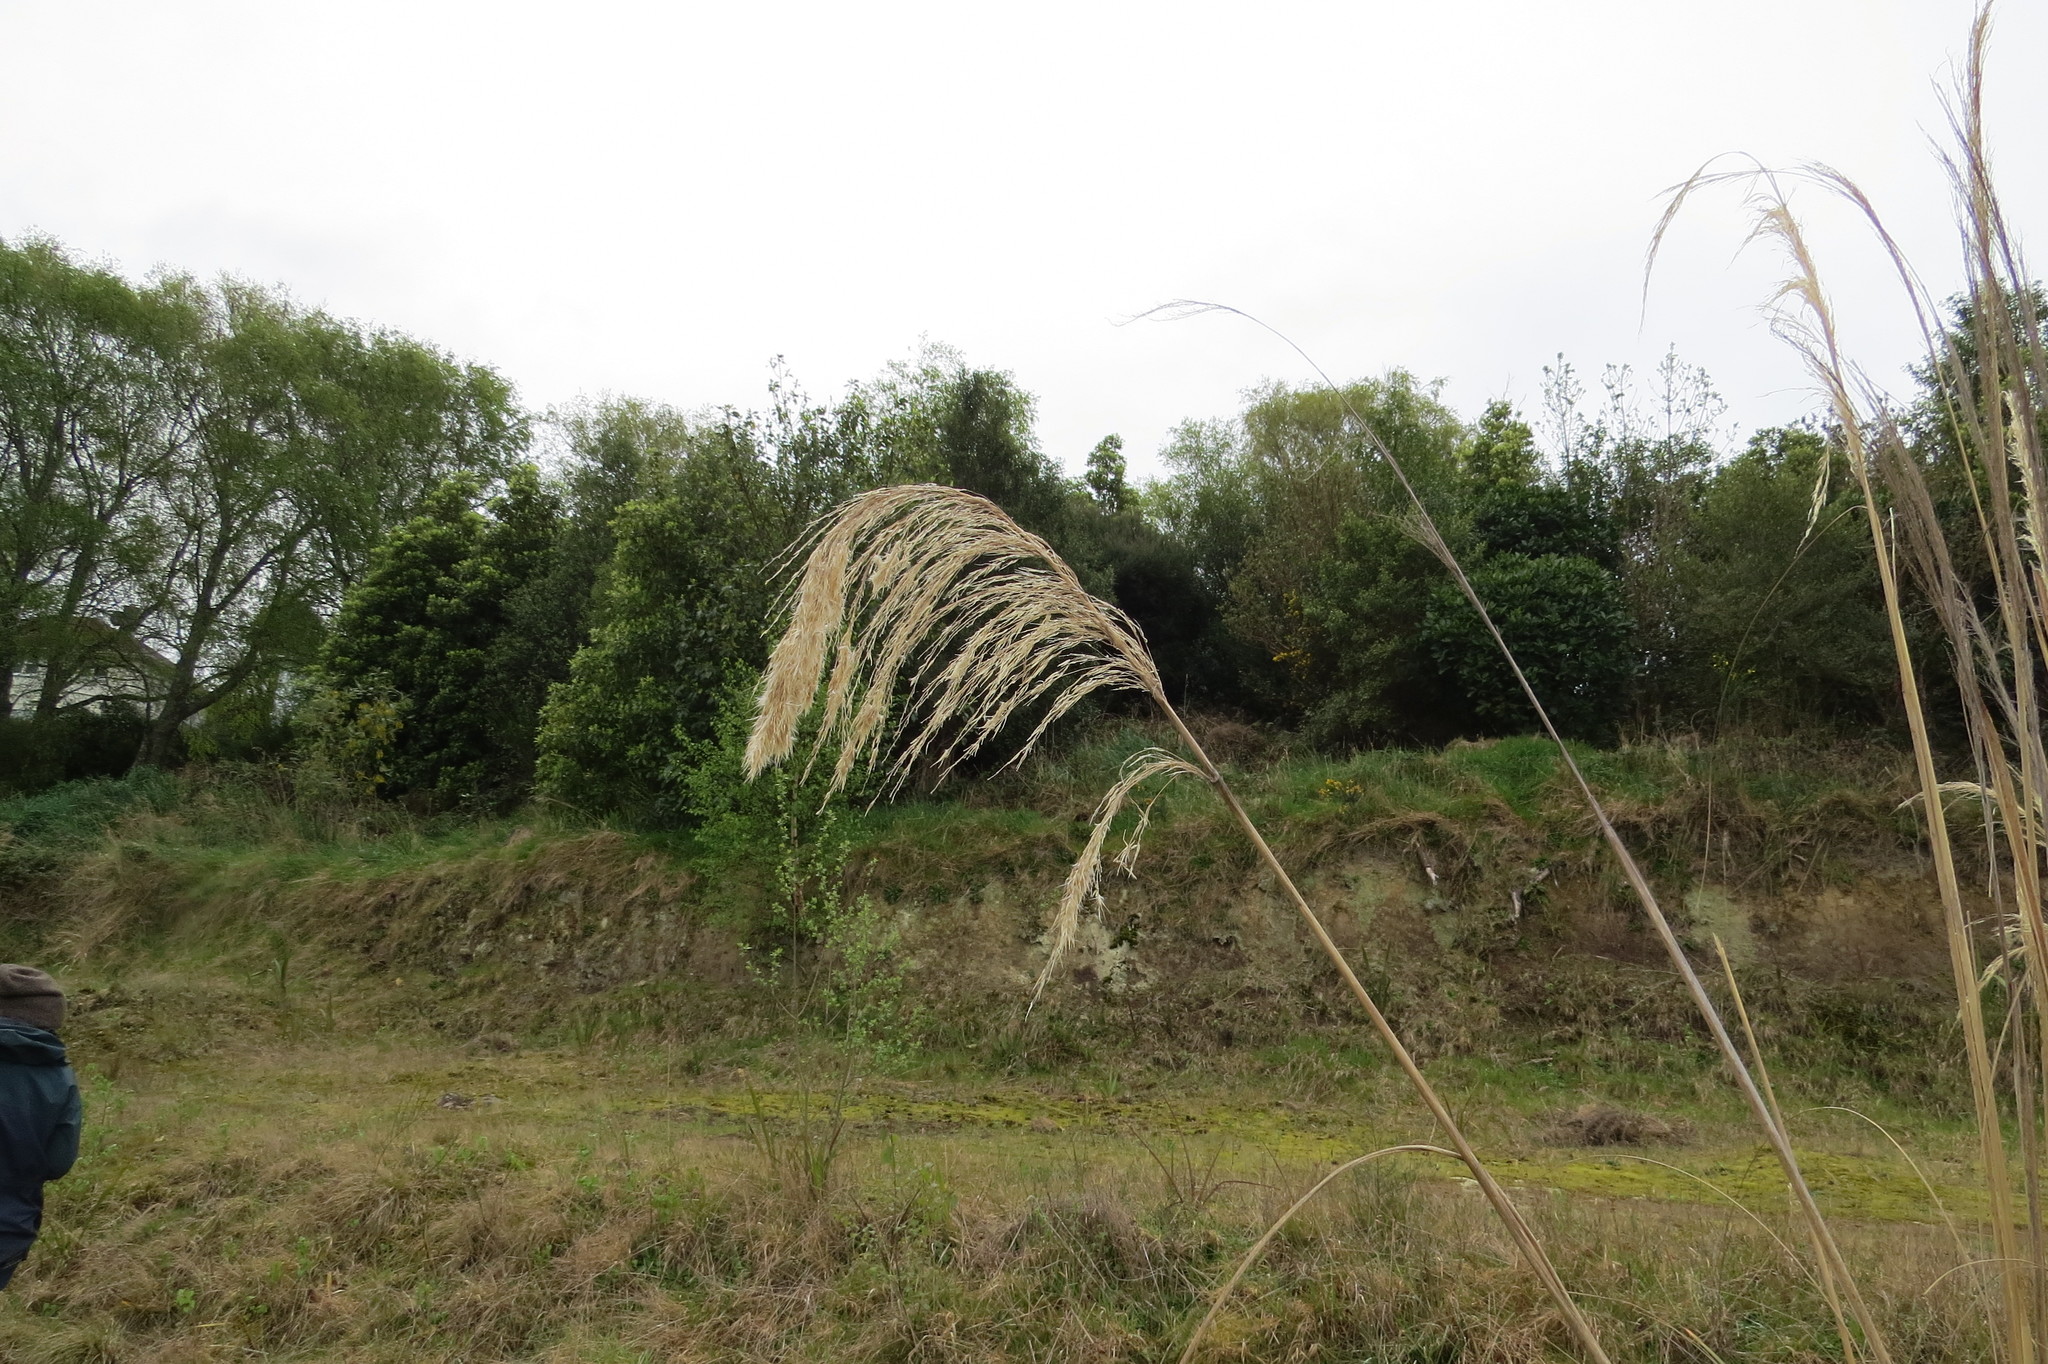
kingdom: Plantae
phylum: Tracheophyta
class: Liliopsida
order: Poales
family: Poaceae
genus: Austroderia
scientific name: Austroderia richardii
